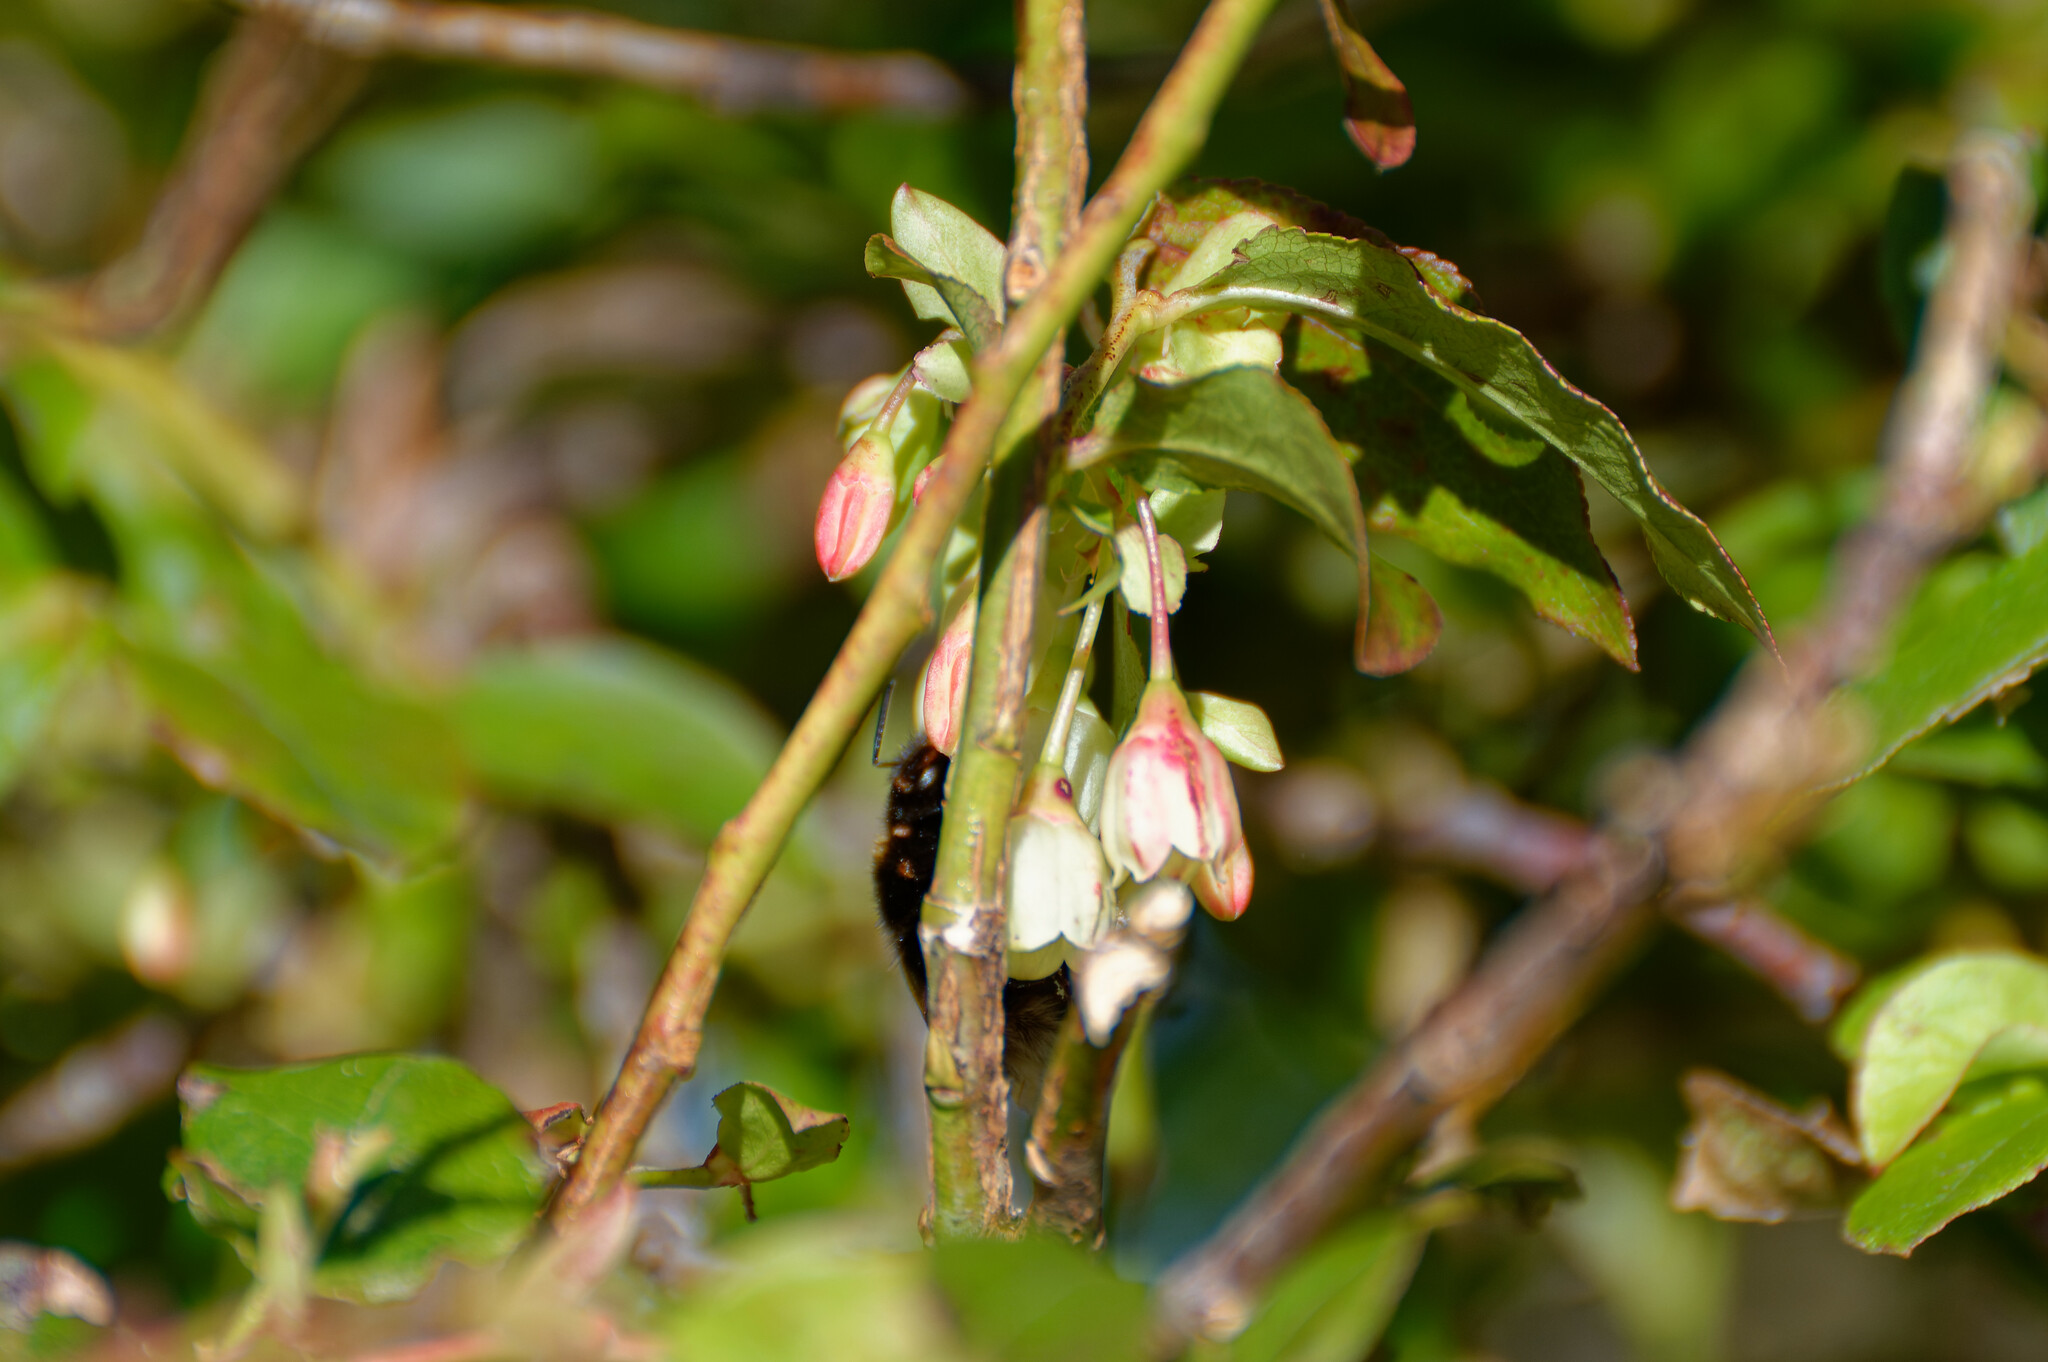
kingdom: Animalia
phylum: Arthropoda
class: Insecta
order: Hymenoptera
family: Apidae
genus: Bombus
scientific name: Bombus terrestris
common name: Buff-tailed bumblebee
